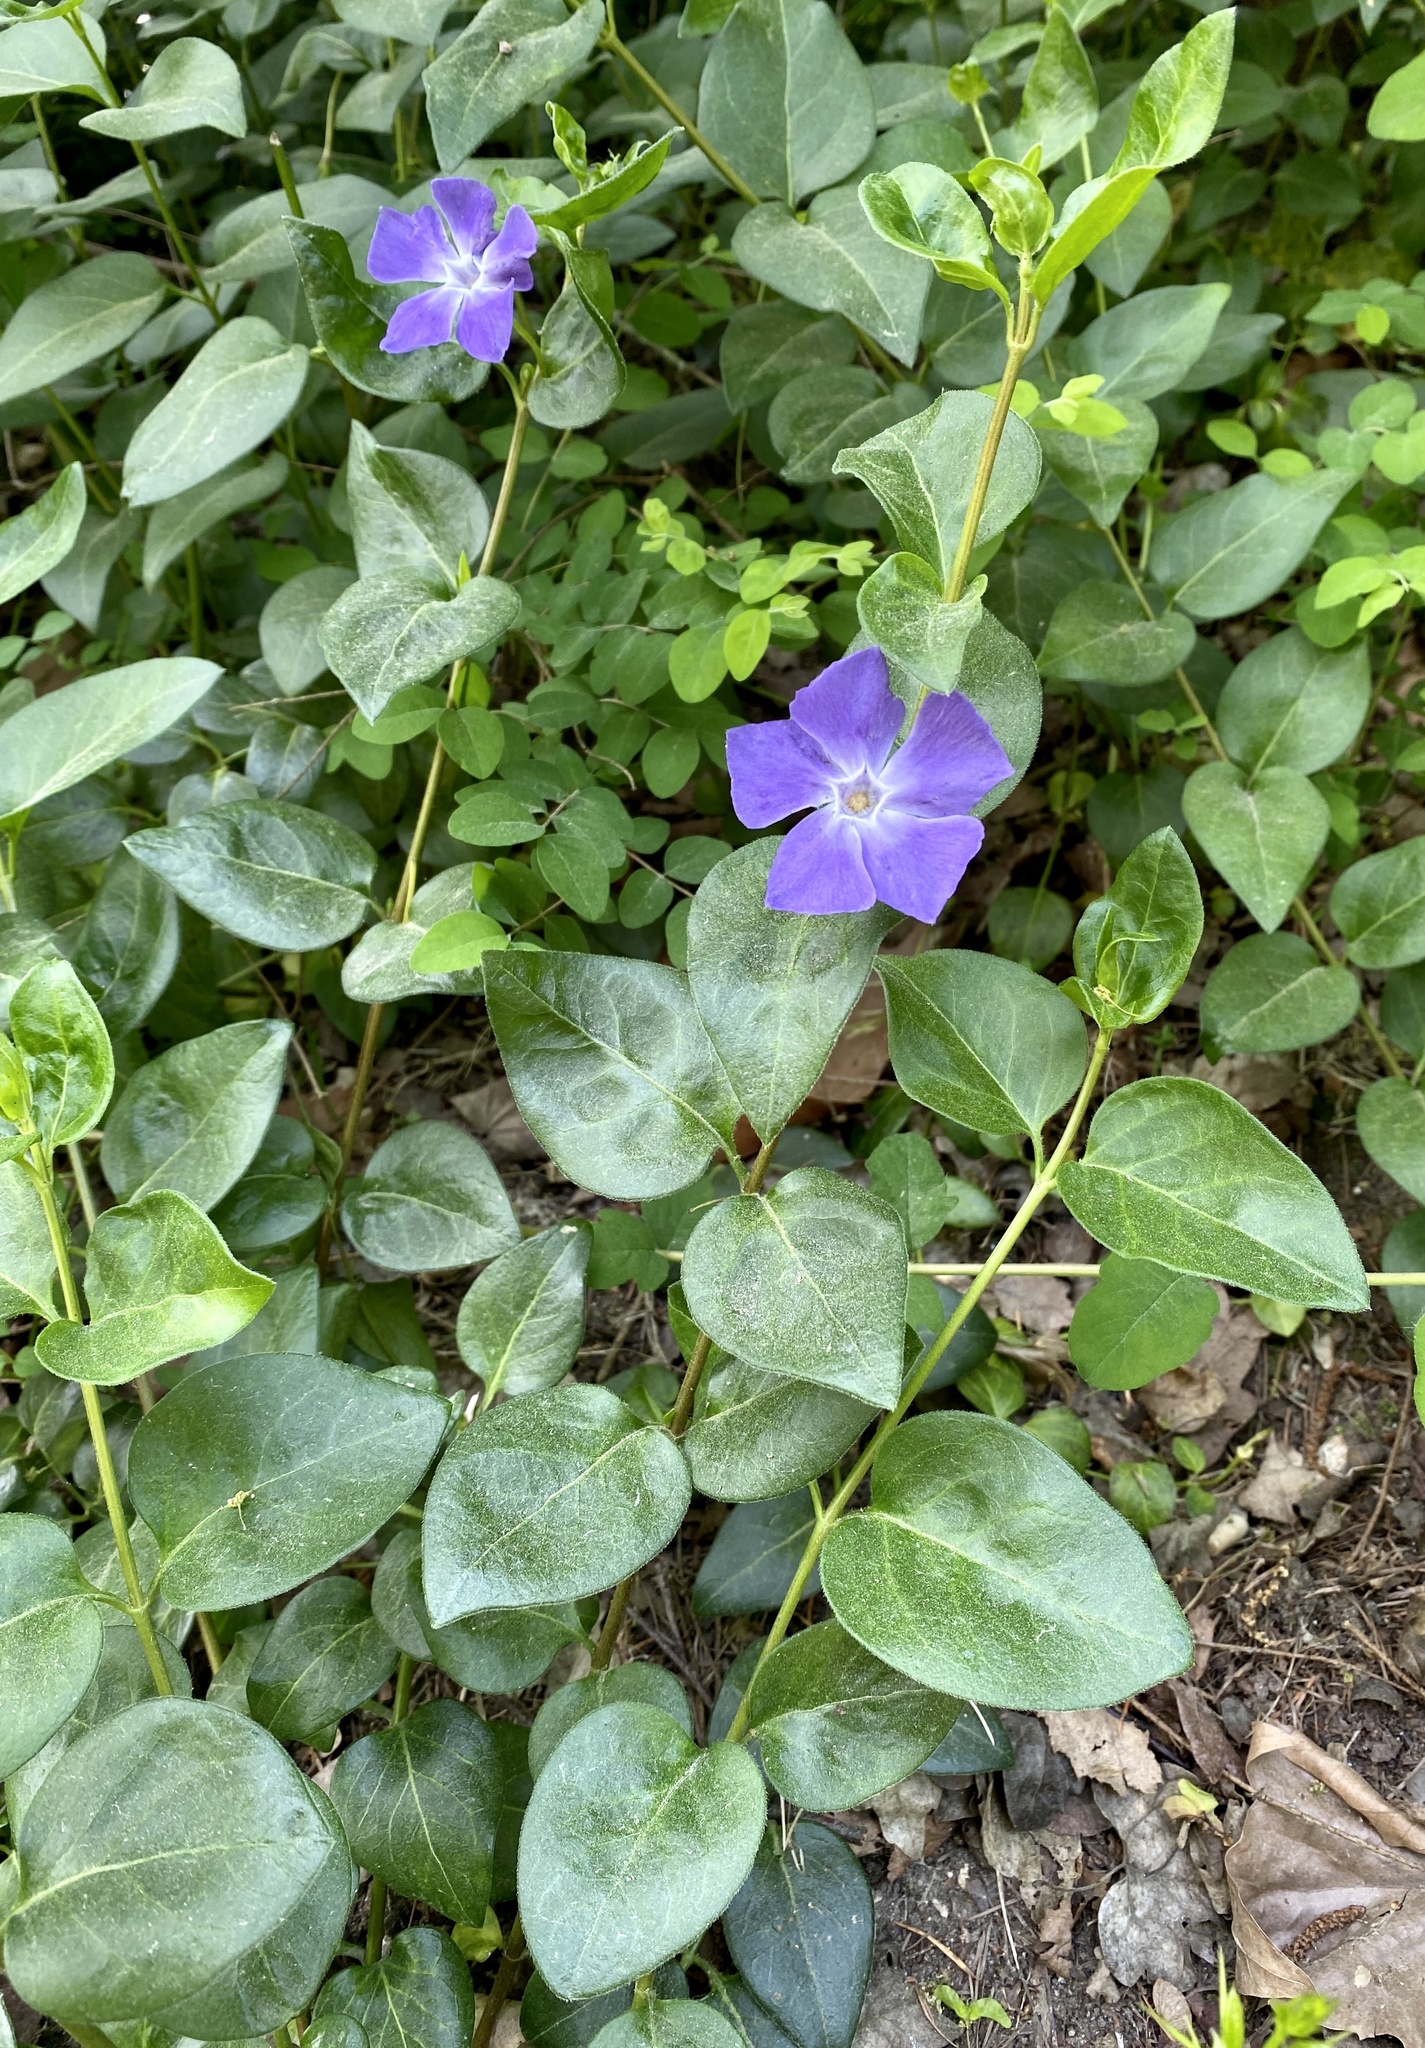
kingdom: Plantae
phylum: Tracheophyta
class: Magnoliopsida
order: Gentianales
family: Apocynaceae
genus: Vinca
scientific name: Vinca major
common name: Greater periwinkle
